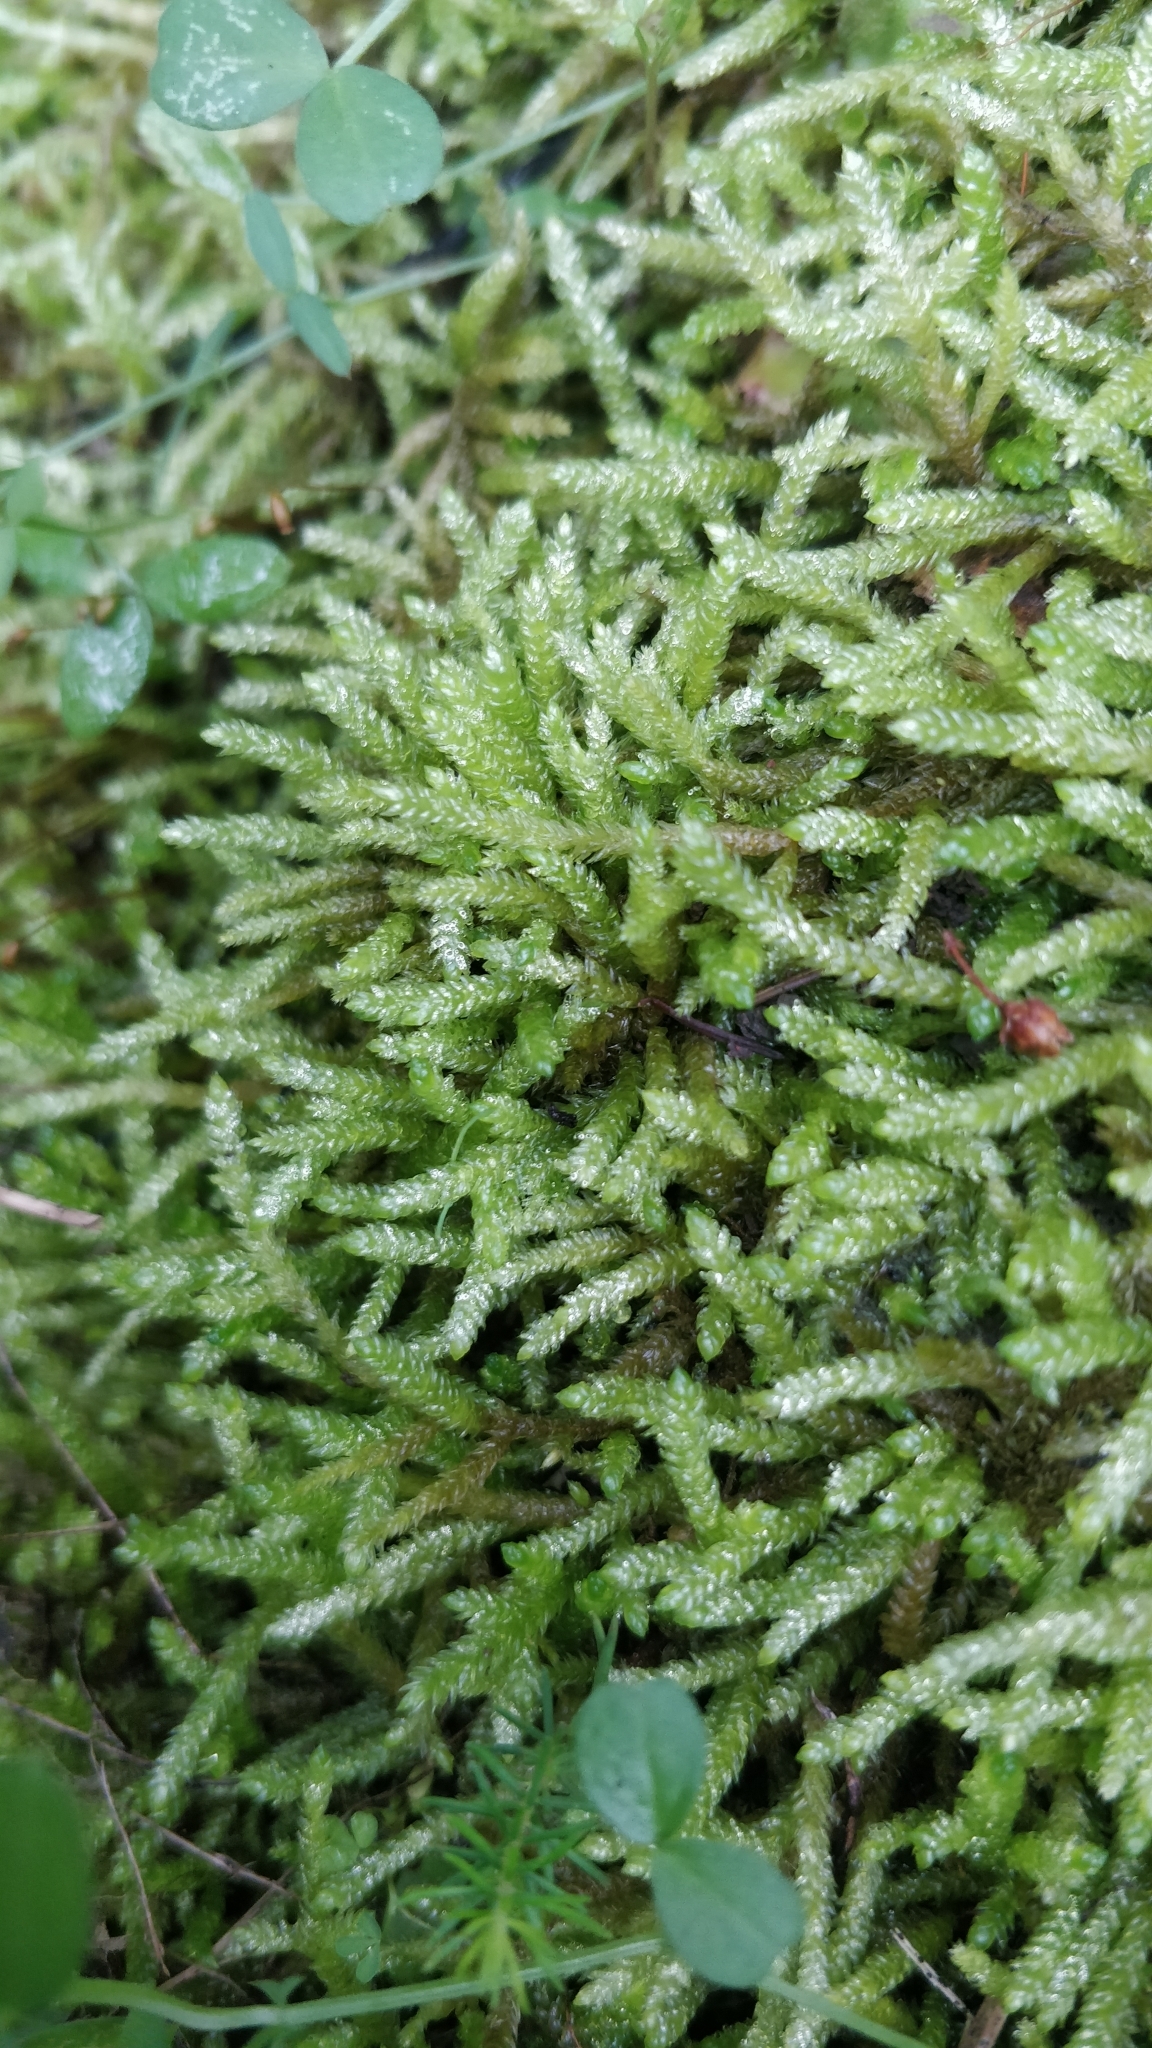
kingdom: Plantae
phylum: Bryophyta
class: Bryopsida
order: Hypnales
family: Brachytheciaceae
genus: Pseudoscleropodium
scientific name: Pseudoscleropodium purum
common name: Neat feather-moss
